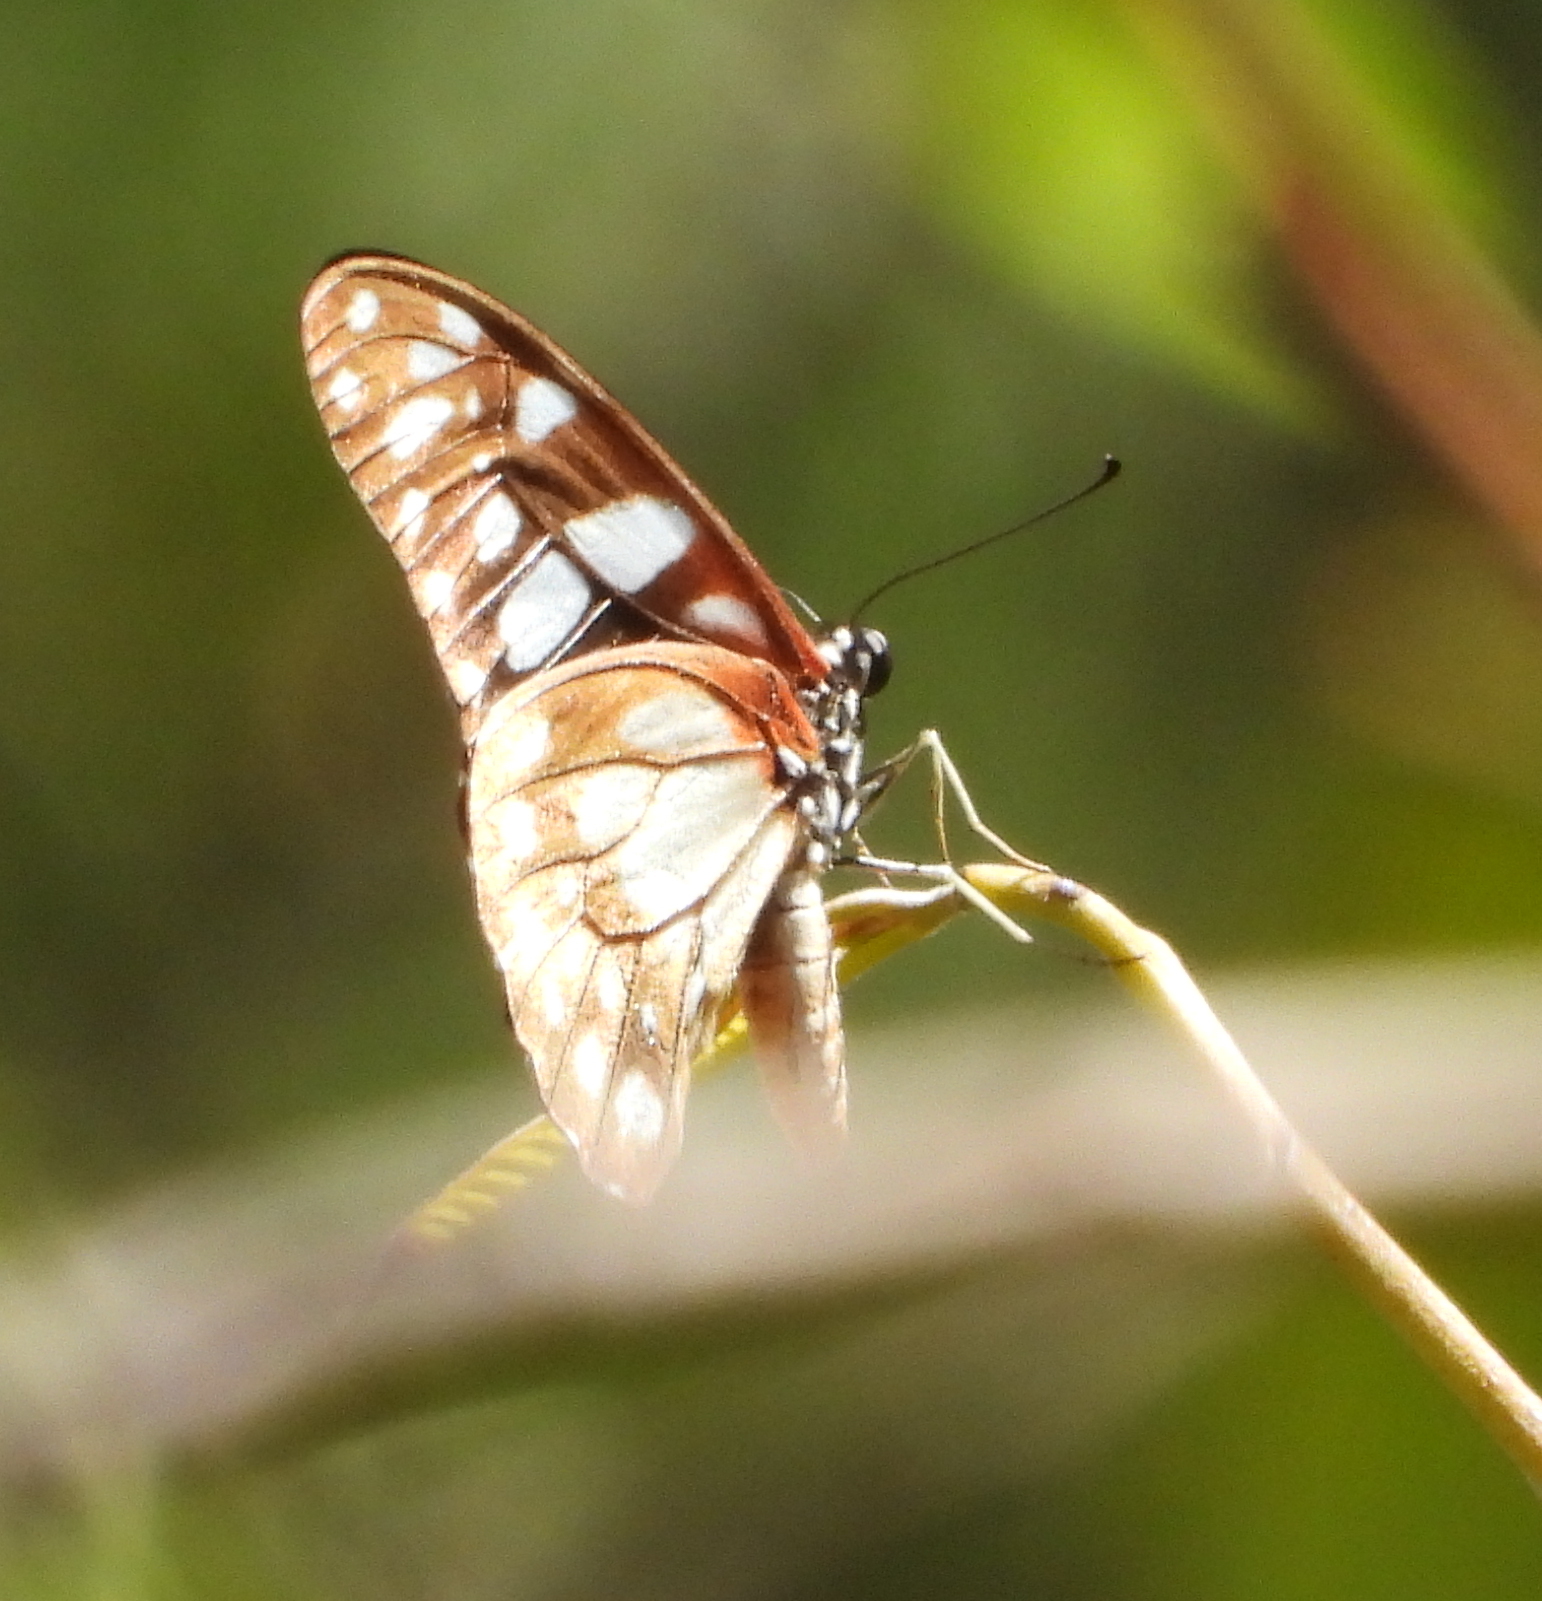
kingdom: Animalia
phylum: Arthropoda
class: Insecta
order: Lepidoptera
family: Papilionidae
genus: Graphium
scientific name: Graphium leonidas
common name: Common graphium
